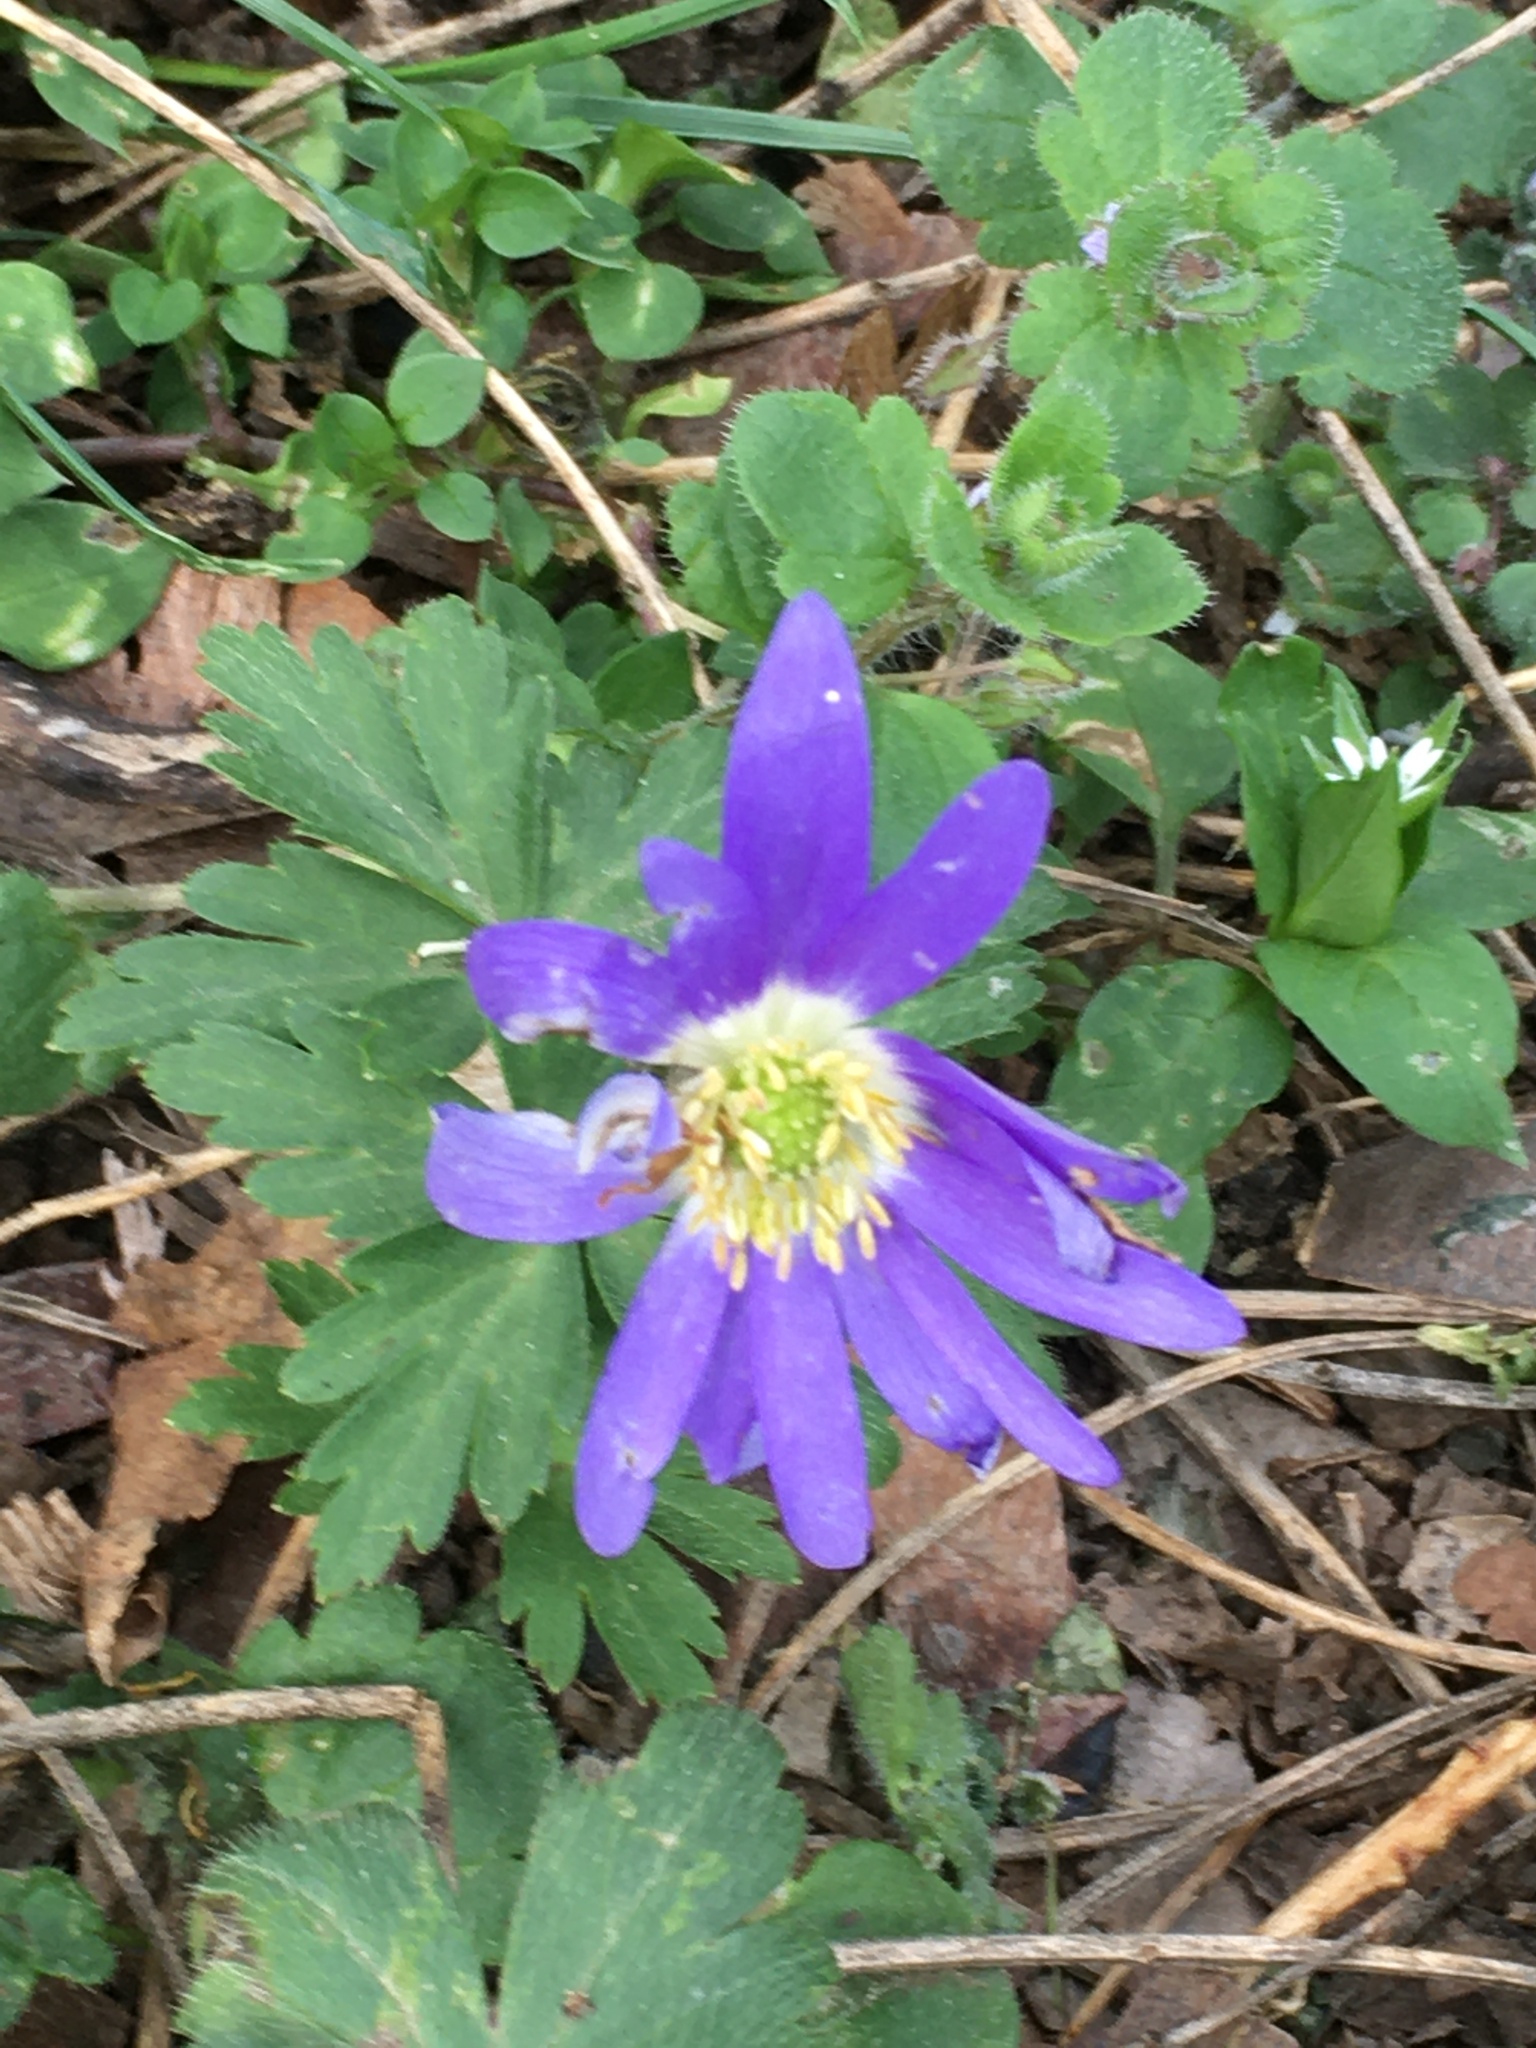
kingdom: Plantae
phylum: Tracheophyta
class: Magnoliopsida
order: Ranunculales
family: Ranunculaceae
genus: Anemone
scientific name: Anemone blanda
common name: Balkan anemone
